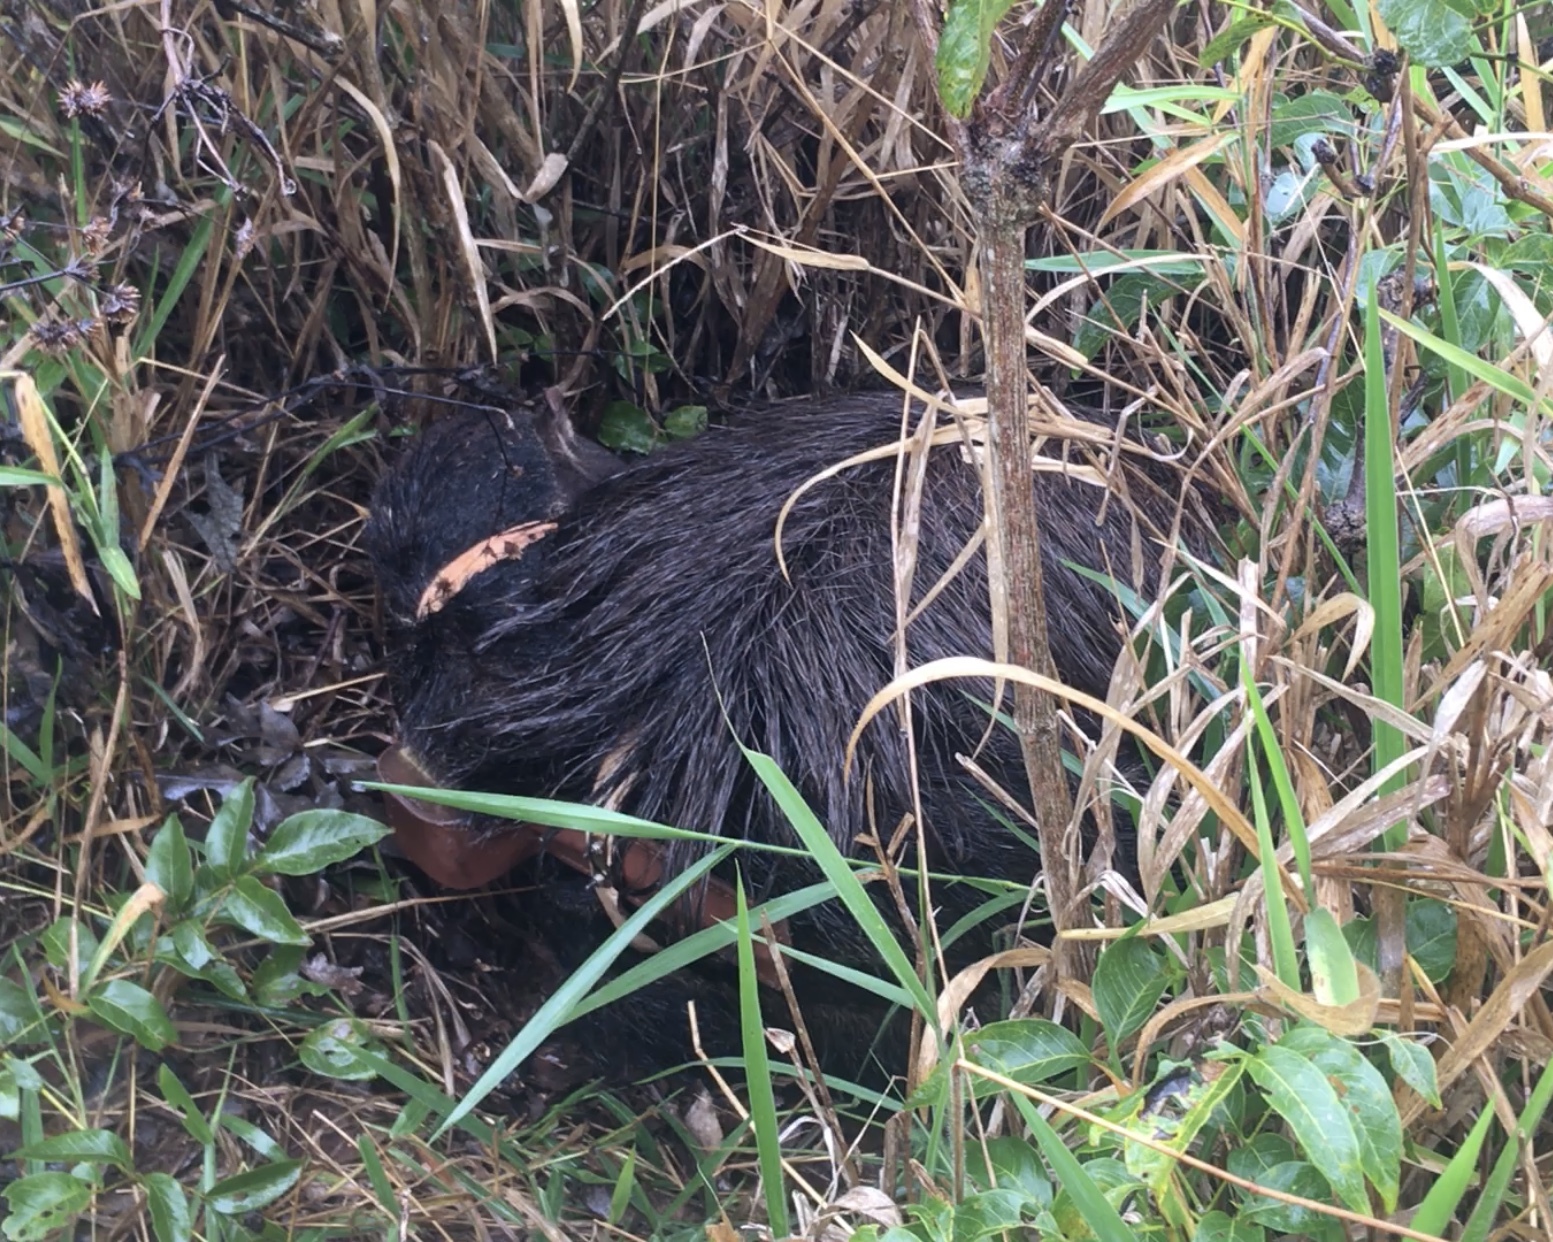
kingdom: Animalia
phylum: Chordata
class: Mammalia
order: Pilosa
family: Myrmecophagidae
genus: Myrmecophaga
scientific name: Myrmecophaga tridactyla
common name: Giant anteater
